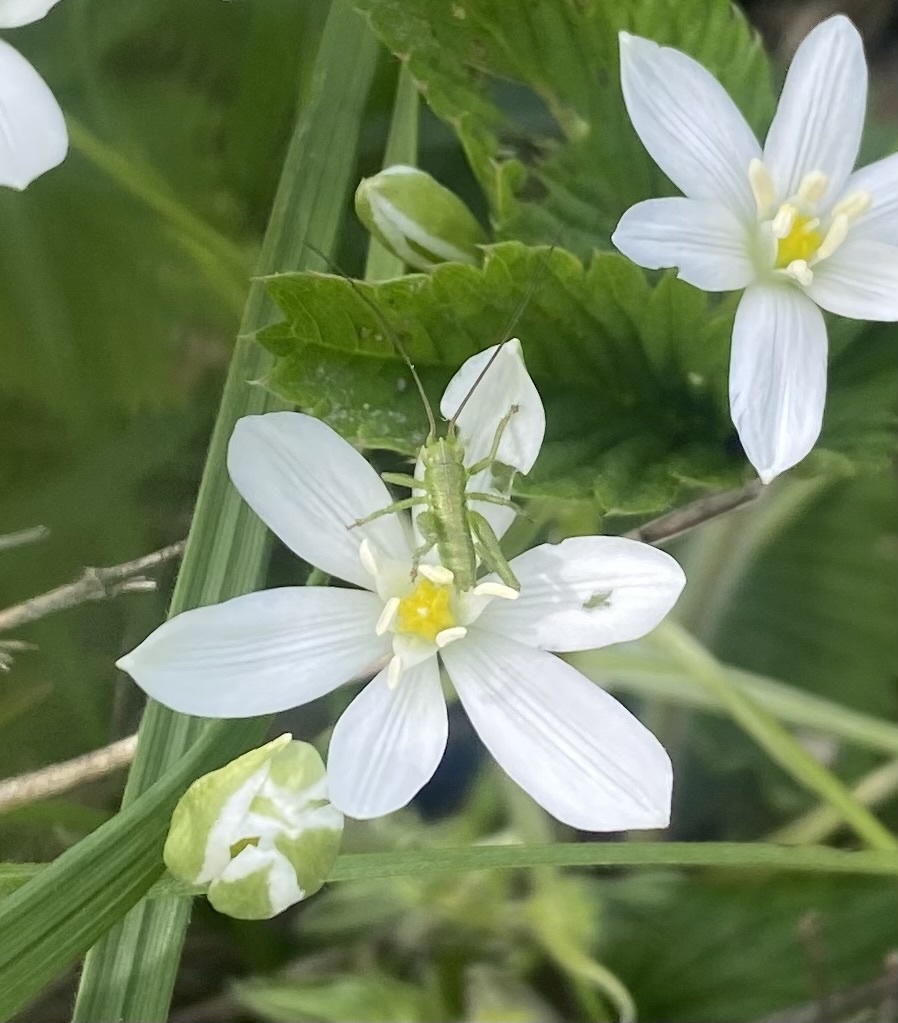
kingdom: Animalia
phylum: Arthropoda
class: Insecta
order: Orthoptera
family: Tettigoniidae
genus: Tettigonia
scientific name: Tettigonia
